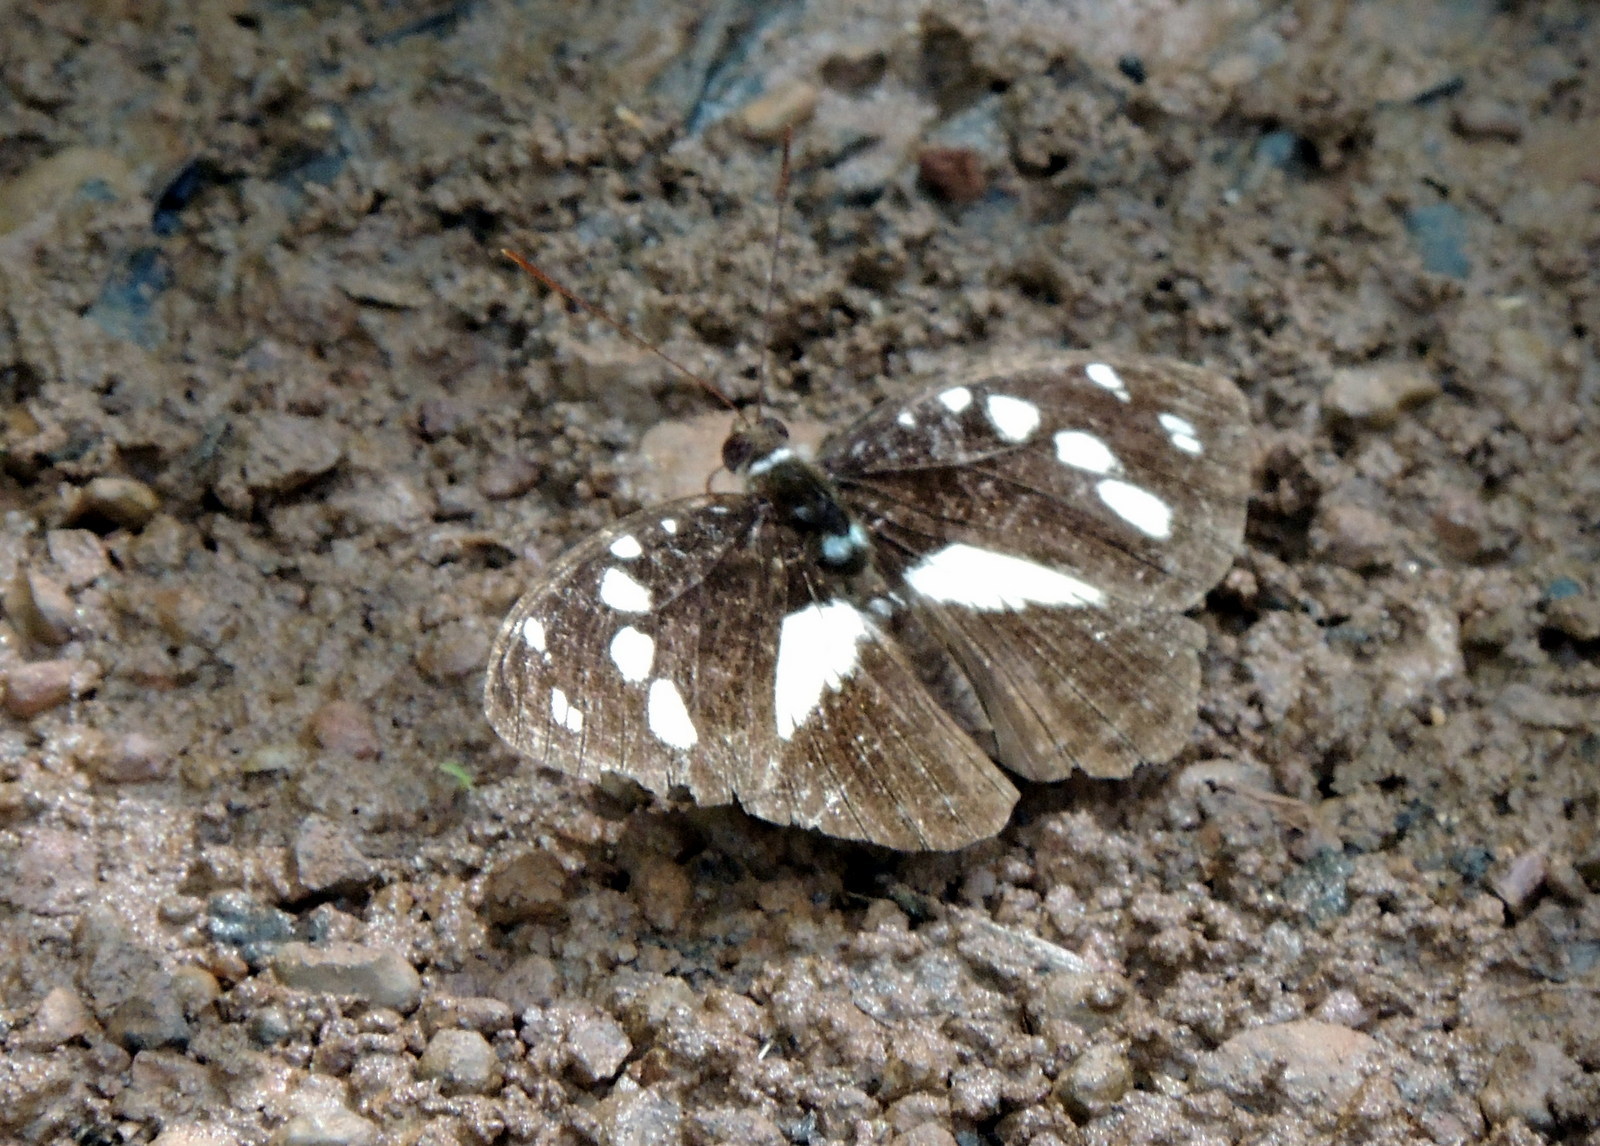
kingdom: Animalia
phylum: Arthropoda
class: Insecta
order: Lepidoptera
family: Nymphalidae
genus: Aterica
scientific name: Aterica galene
